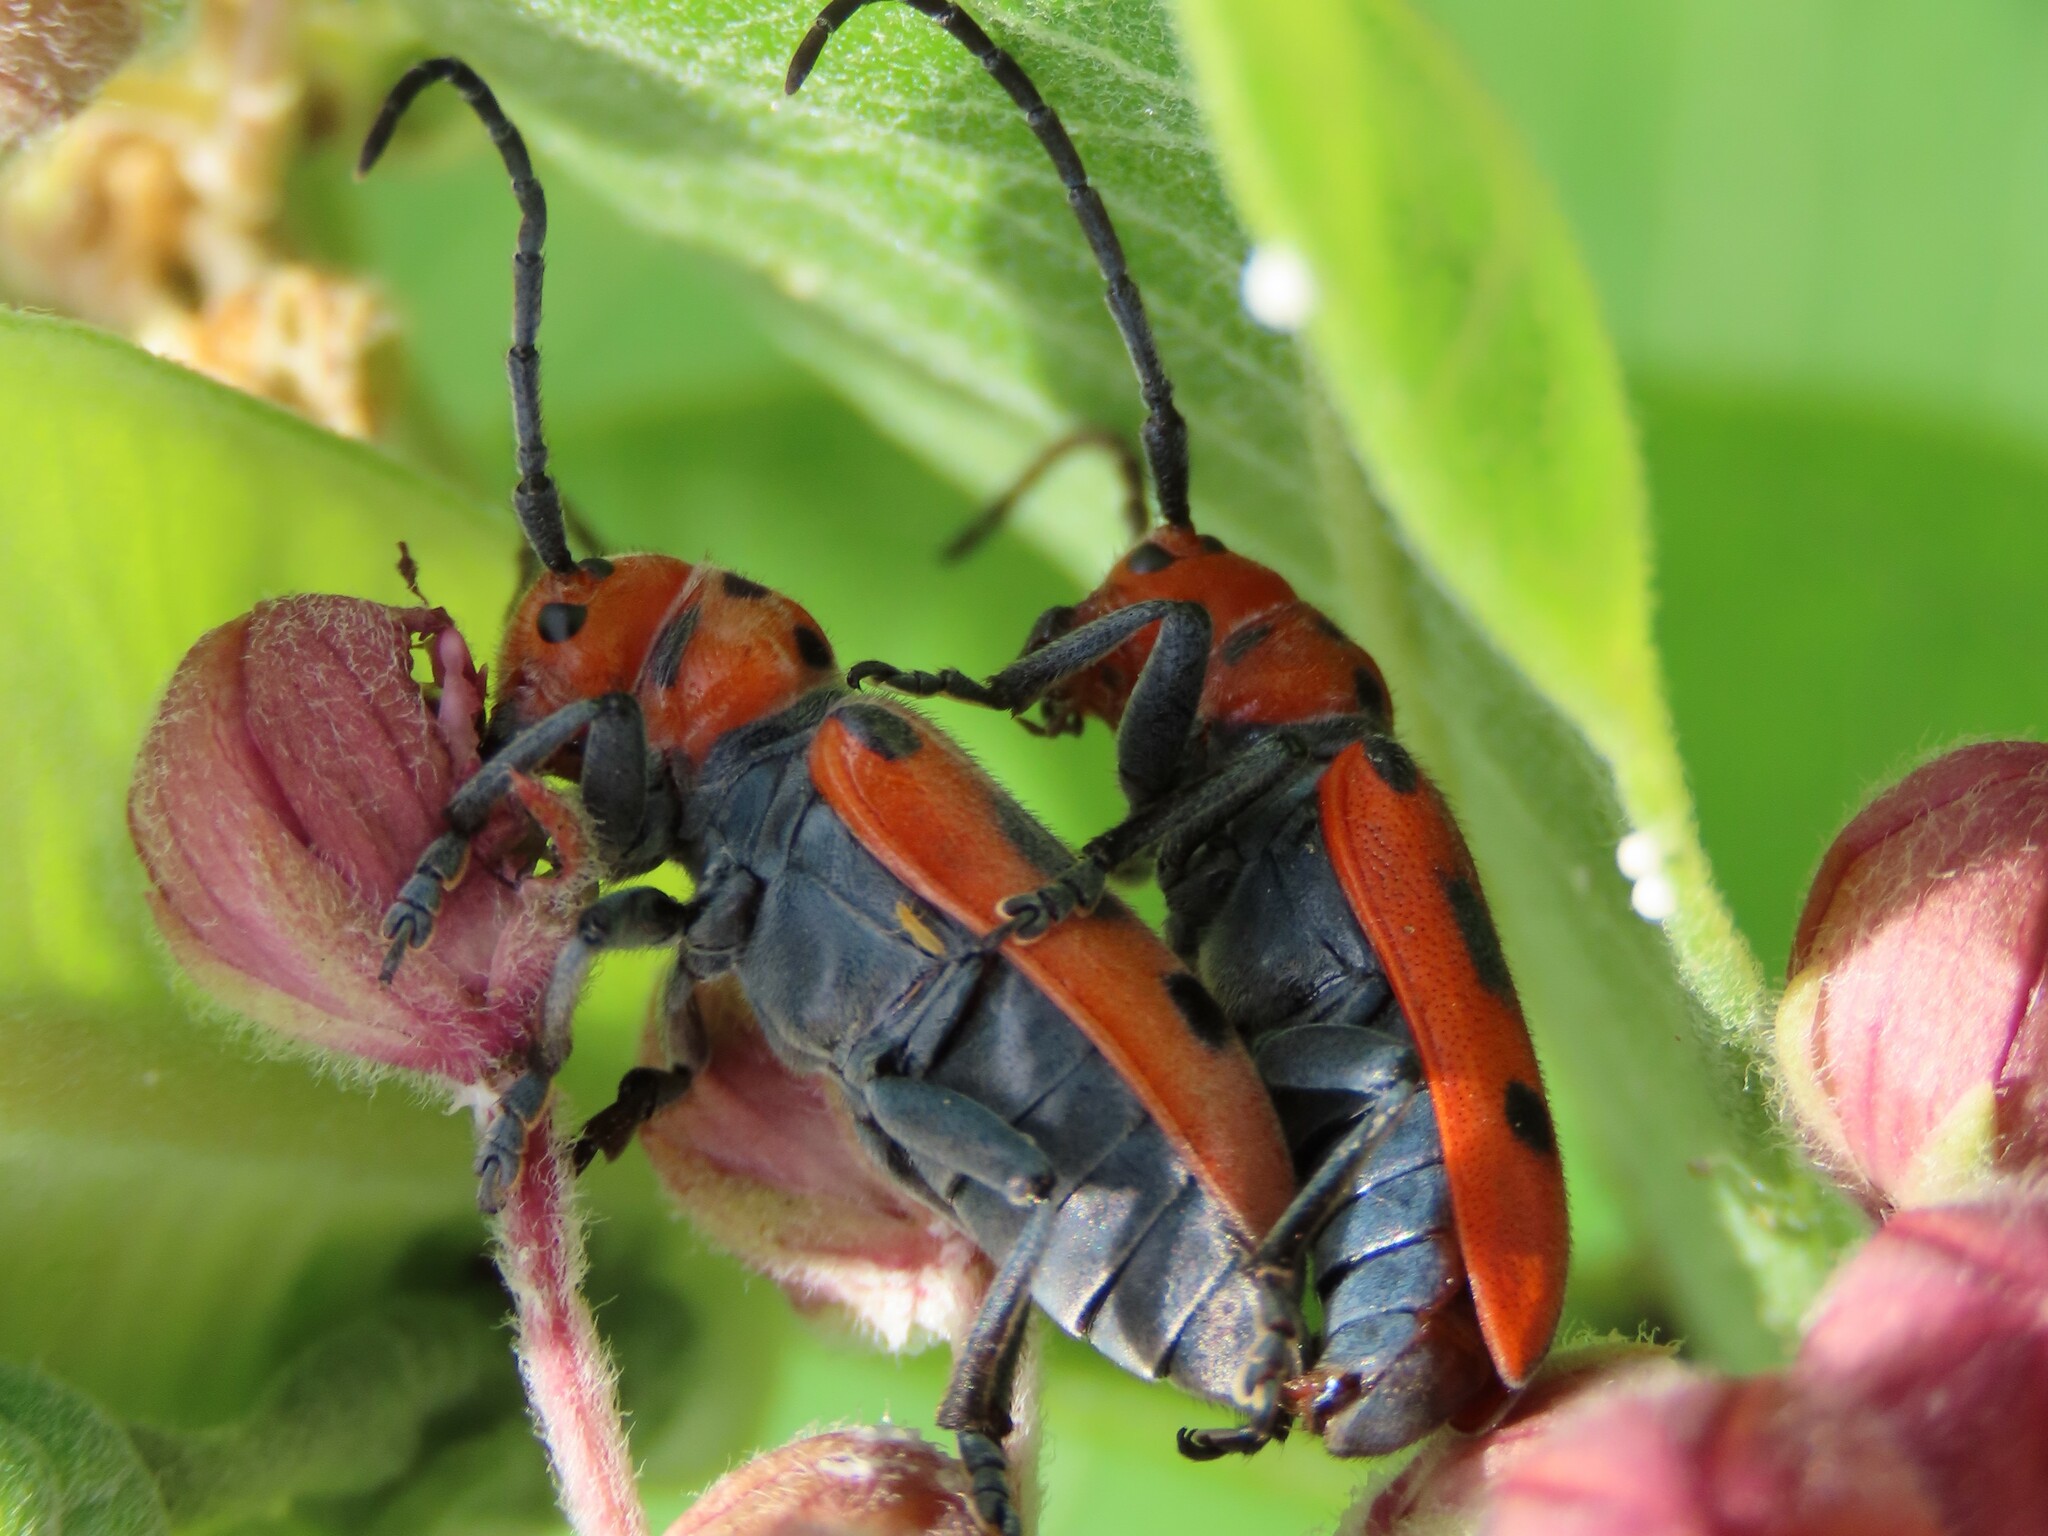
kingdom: Animalia
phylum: Arthropoda
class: Insecta
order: Coleoptera
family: Cerambycidae
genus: Tetraopes
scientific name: Tetraopes tetrophthalmus
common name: Red milkweed beetle
